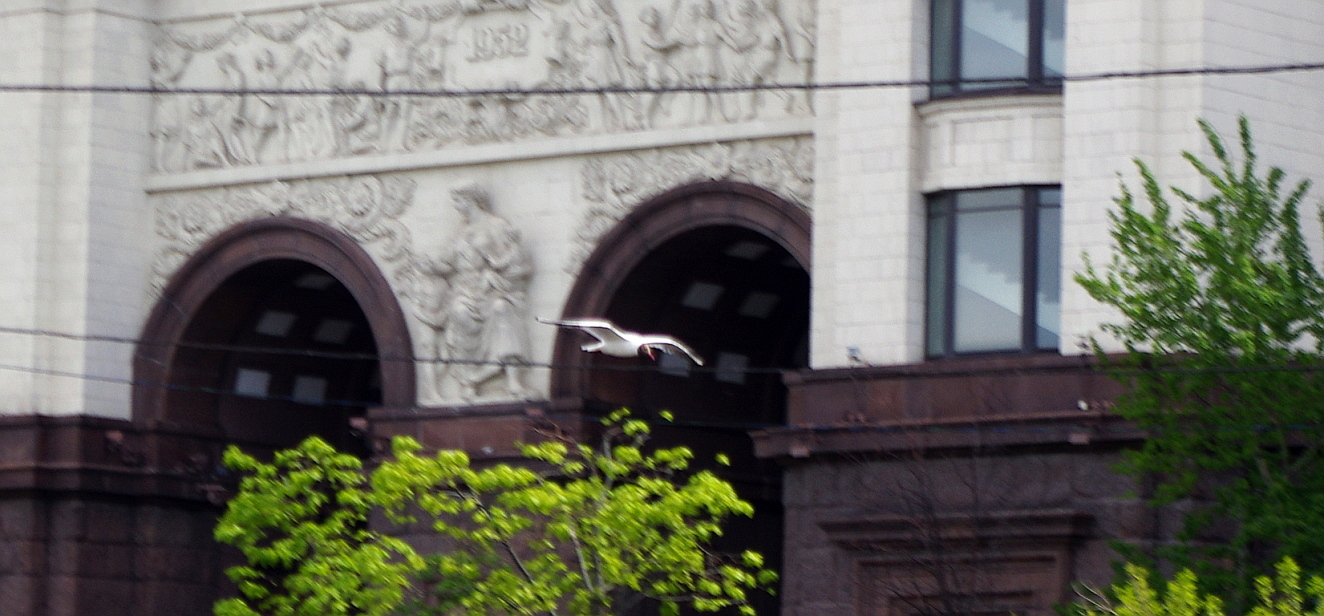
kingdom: Animalia
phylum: Chordata
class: Aves
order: Charadriiformes
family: Laridae
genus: Chroicocephalus
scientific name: Chroicocephalus ridibundus
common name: Black-headed gull
